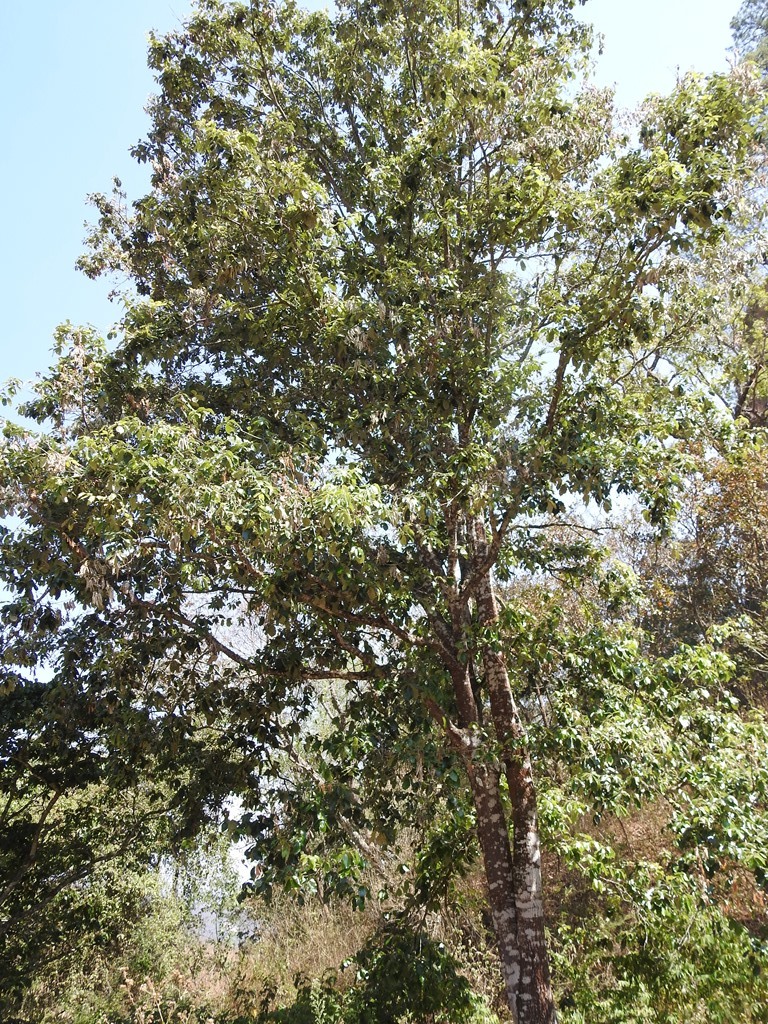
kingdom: Plantae
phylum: Tracheophyta
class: Magnoliopsida
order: Fagales
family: Fagaceae
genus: Quercus
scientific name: Quercus calophylla
